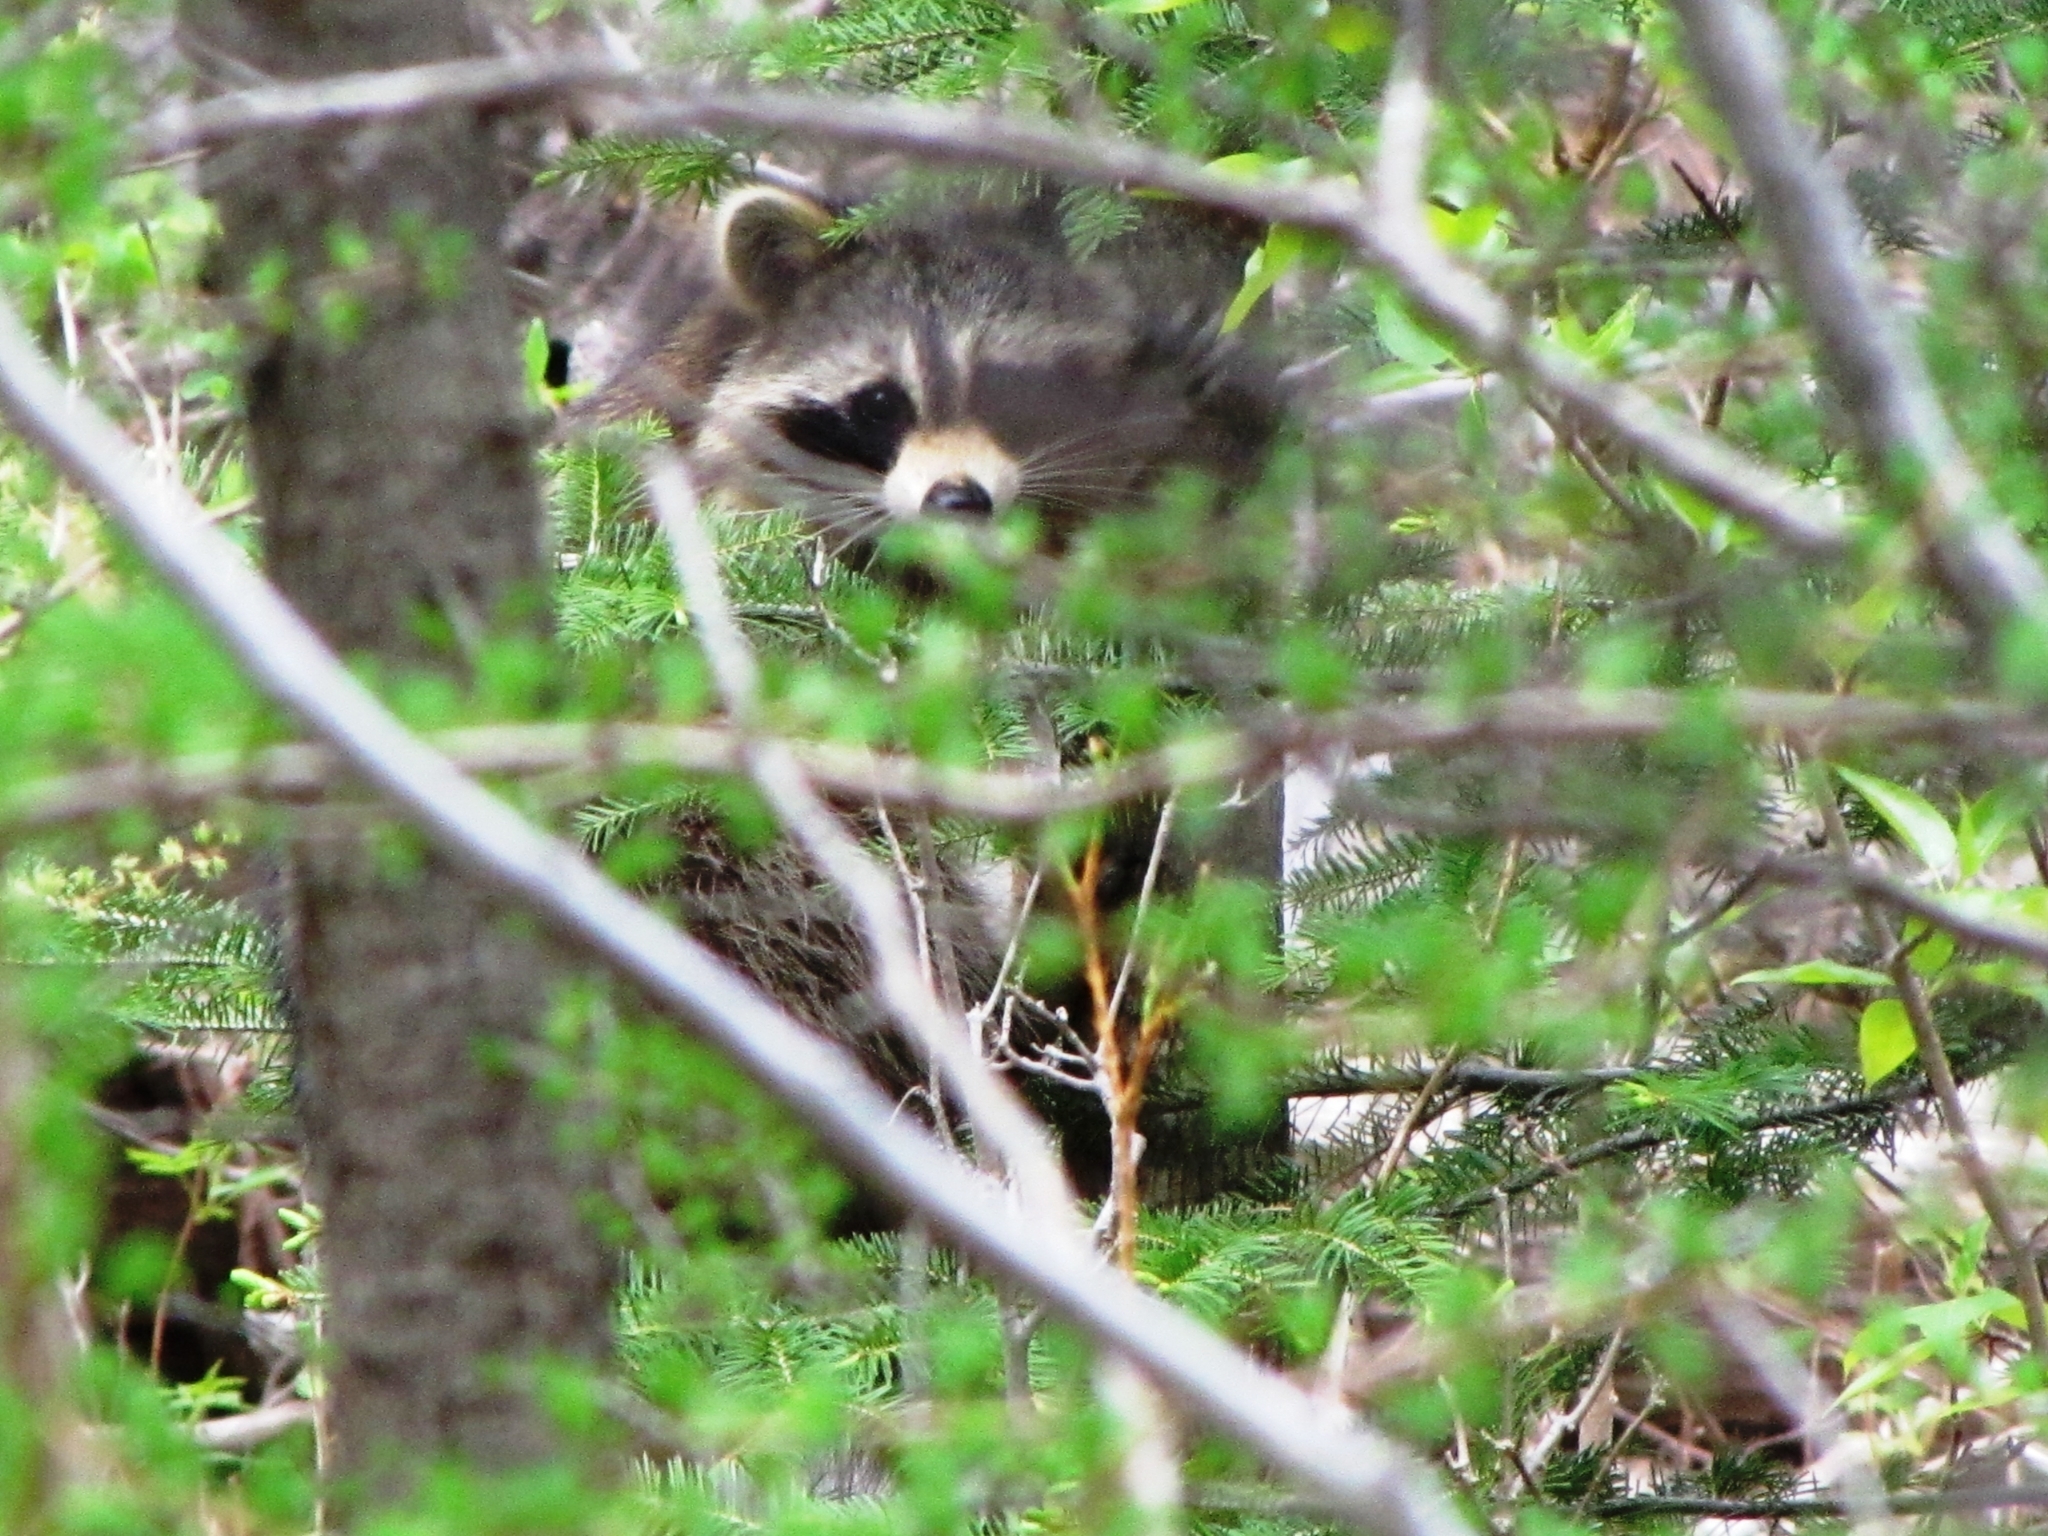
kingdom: Animalia
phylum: Chordata
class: Mammalia
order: Carnivora
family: Procyonidae
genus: Procyon
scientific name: Procyon lotor
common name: Raccoon
